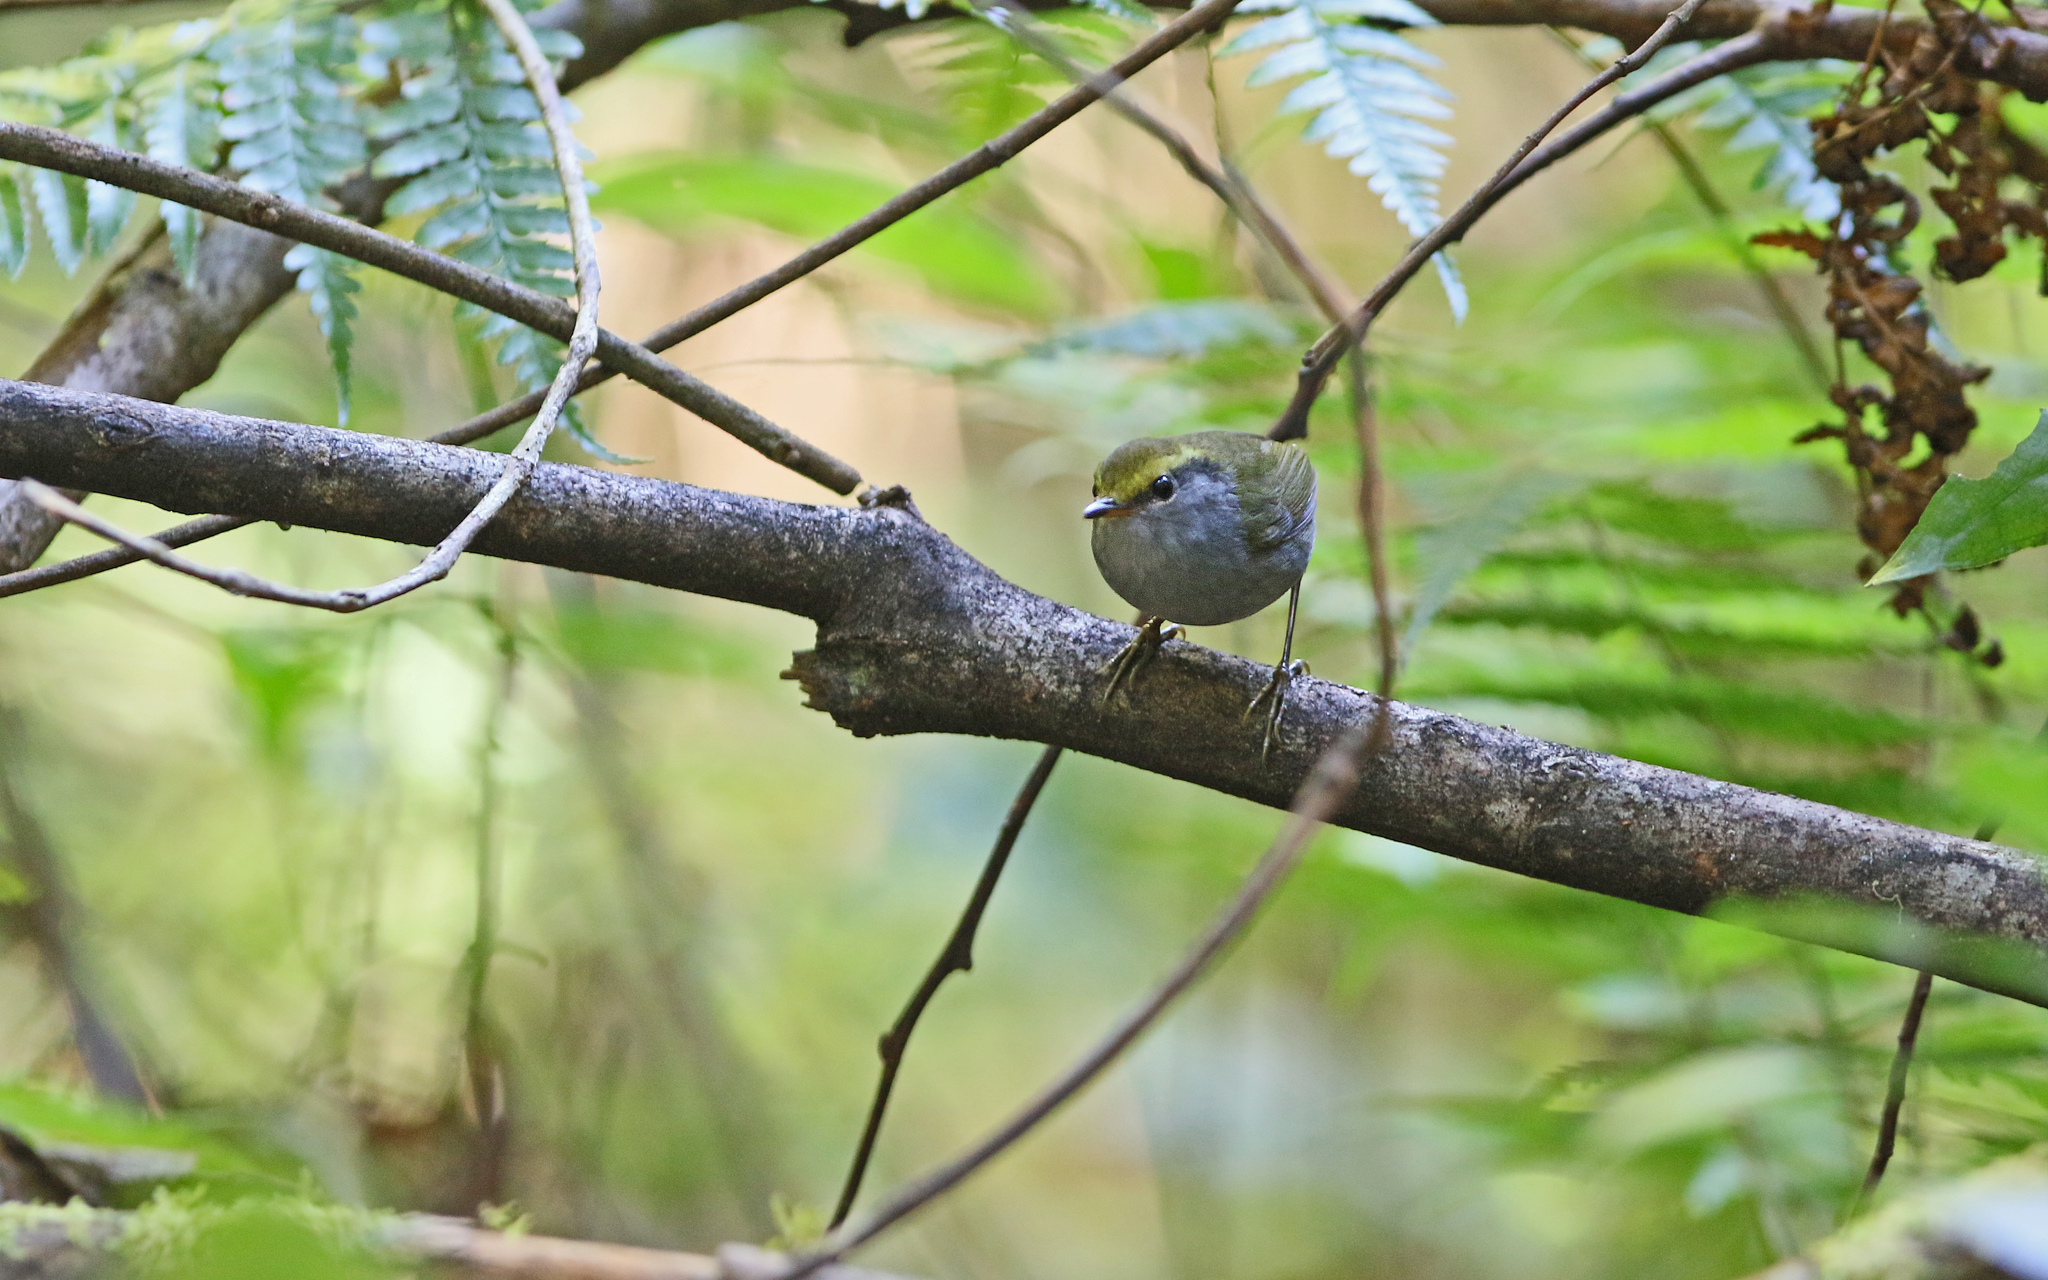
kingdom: Animalia
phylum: Chordata
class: Aves
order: Passeriformes
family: Cettiidae
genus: Tesia
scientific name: Tesia cyaniventer
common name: Grey-bellied tesia
